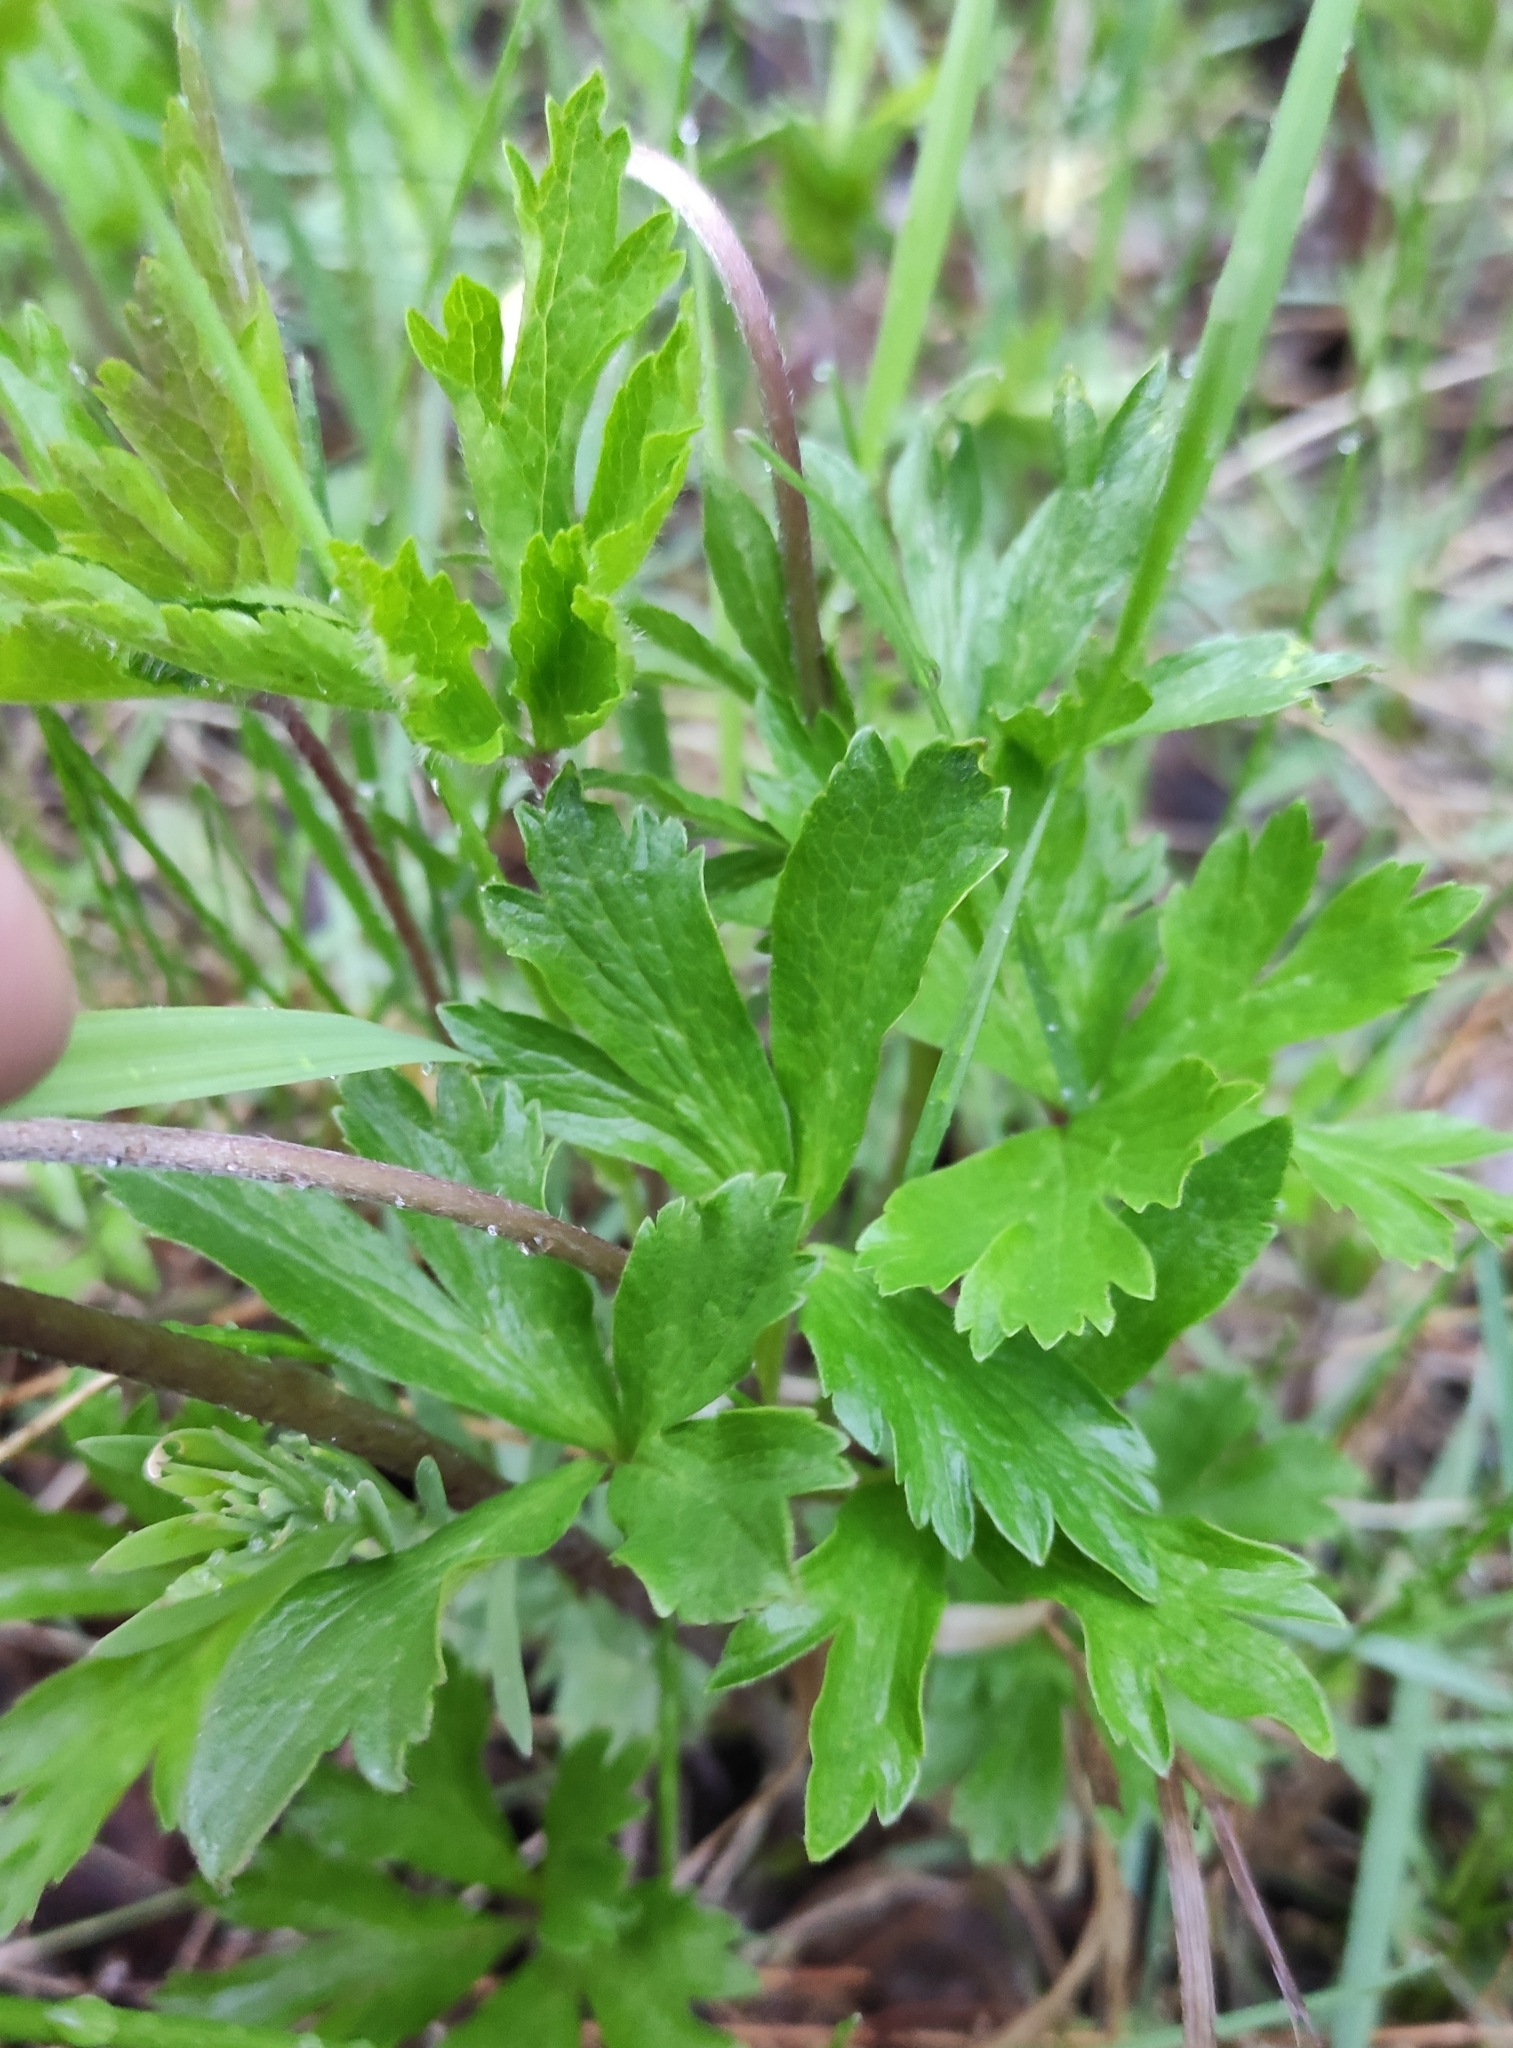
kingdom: Plantae
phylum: Tracheophyta
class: Magnoliopsida
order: Ranunculales
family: Ranunculaceae
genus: Anemone
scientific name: Anemone sylvestris
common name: Snowdrop anemone
